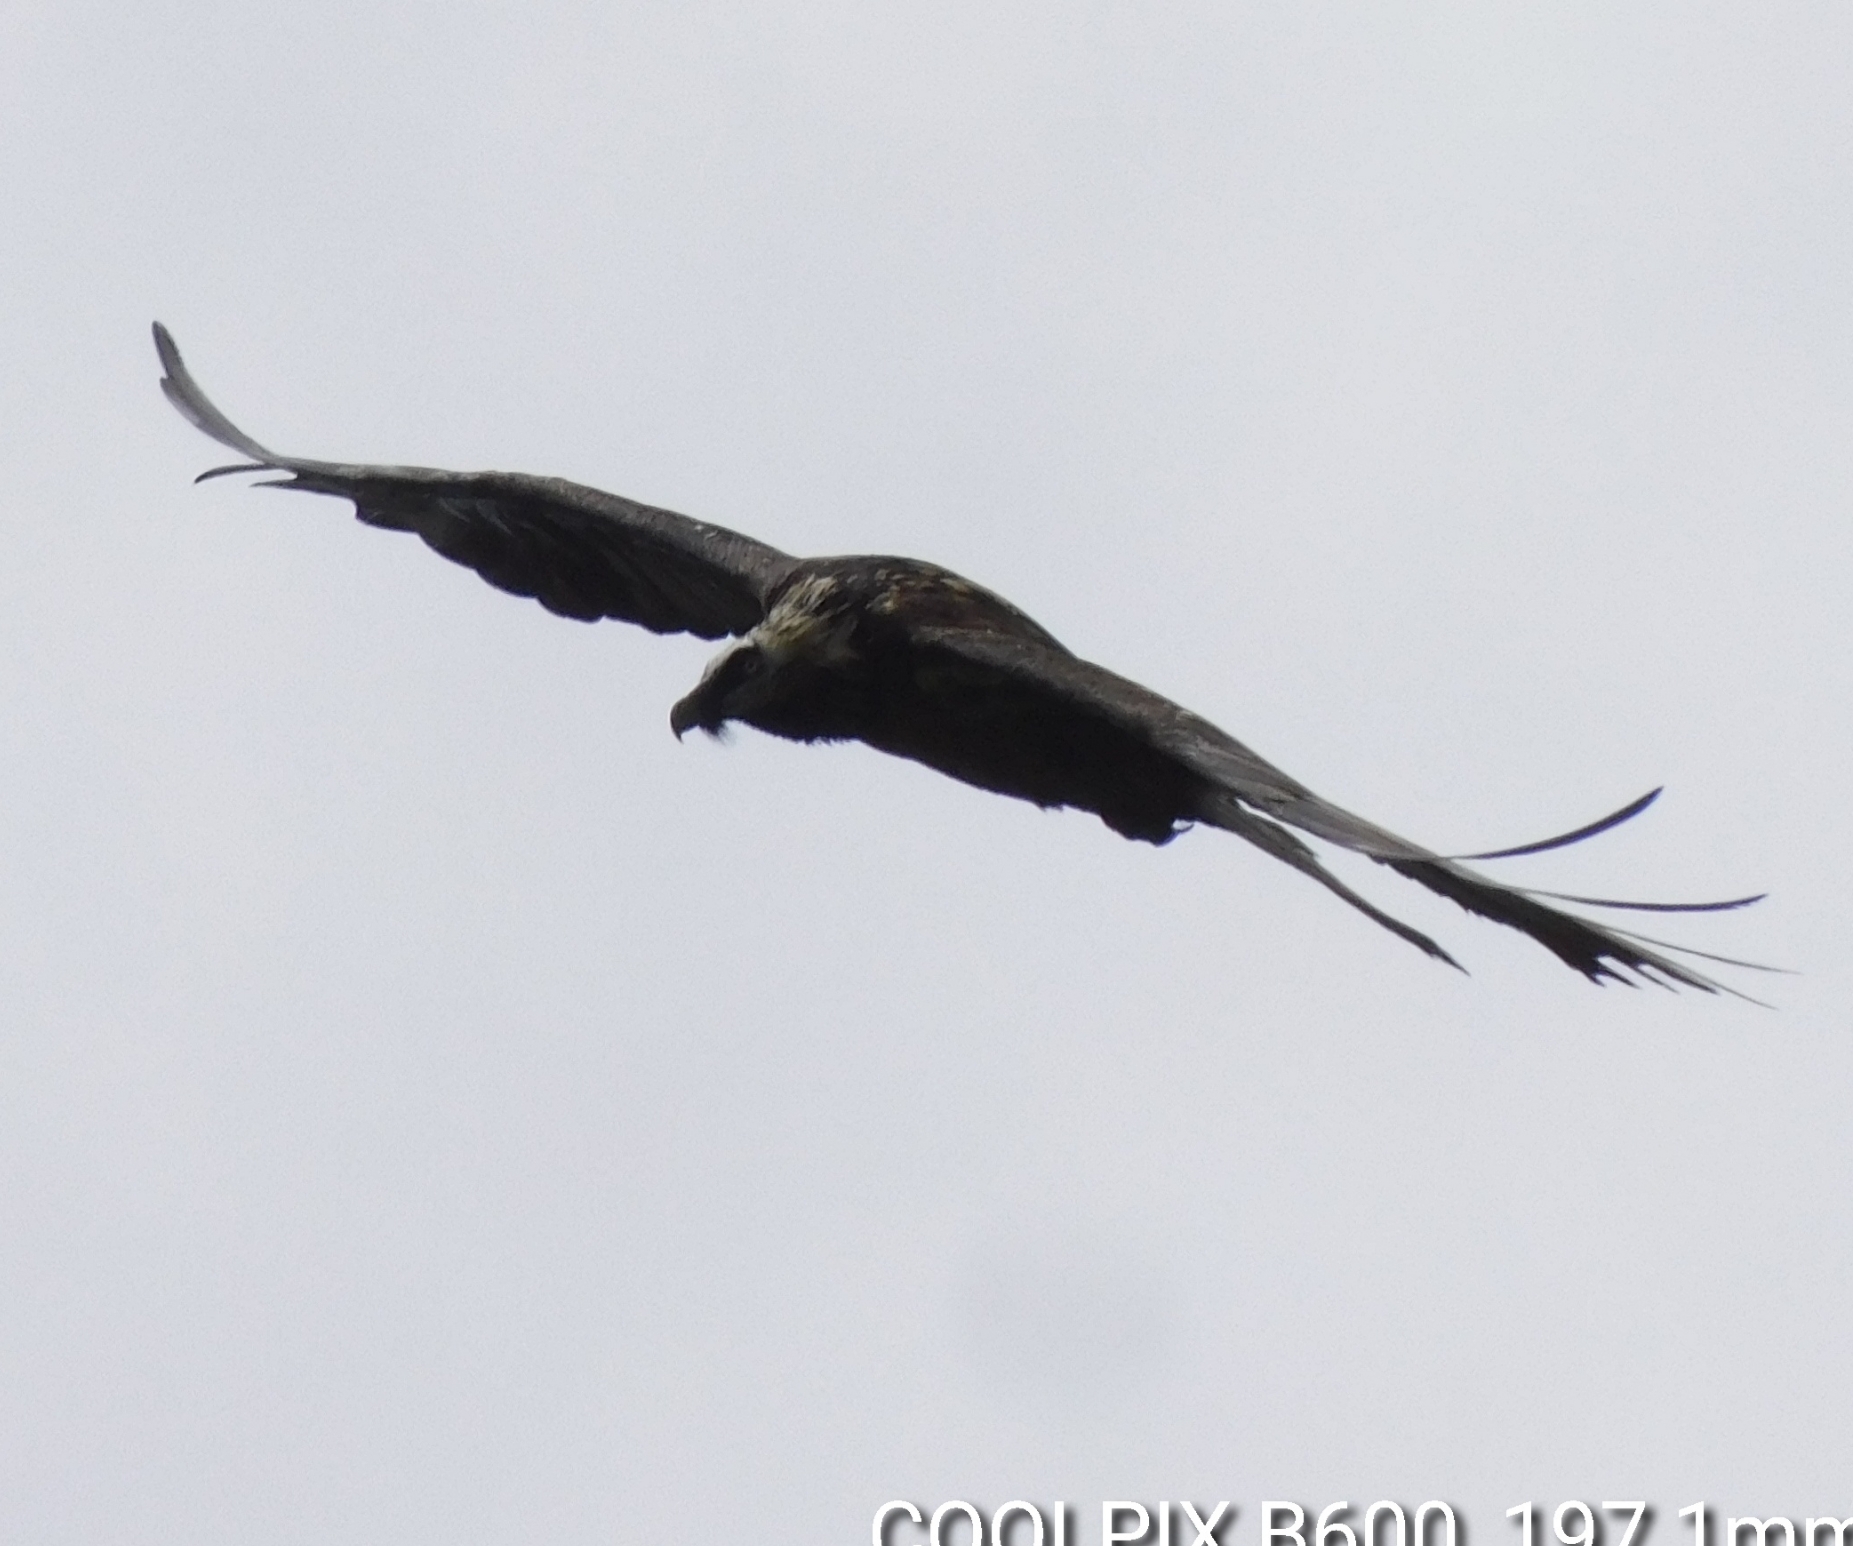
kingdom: Animalia
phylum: Chordata
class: Aves
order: Accipitriformes
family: Accipitridae
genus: Gypaetus
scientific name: Gypaetus barbatus
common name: Bearded vulture
